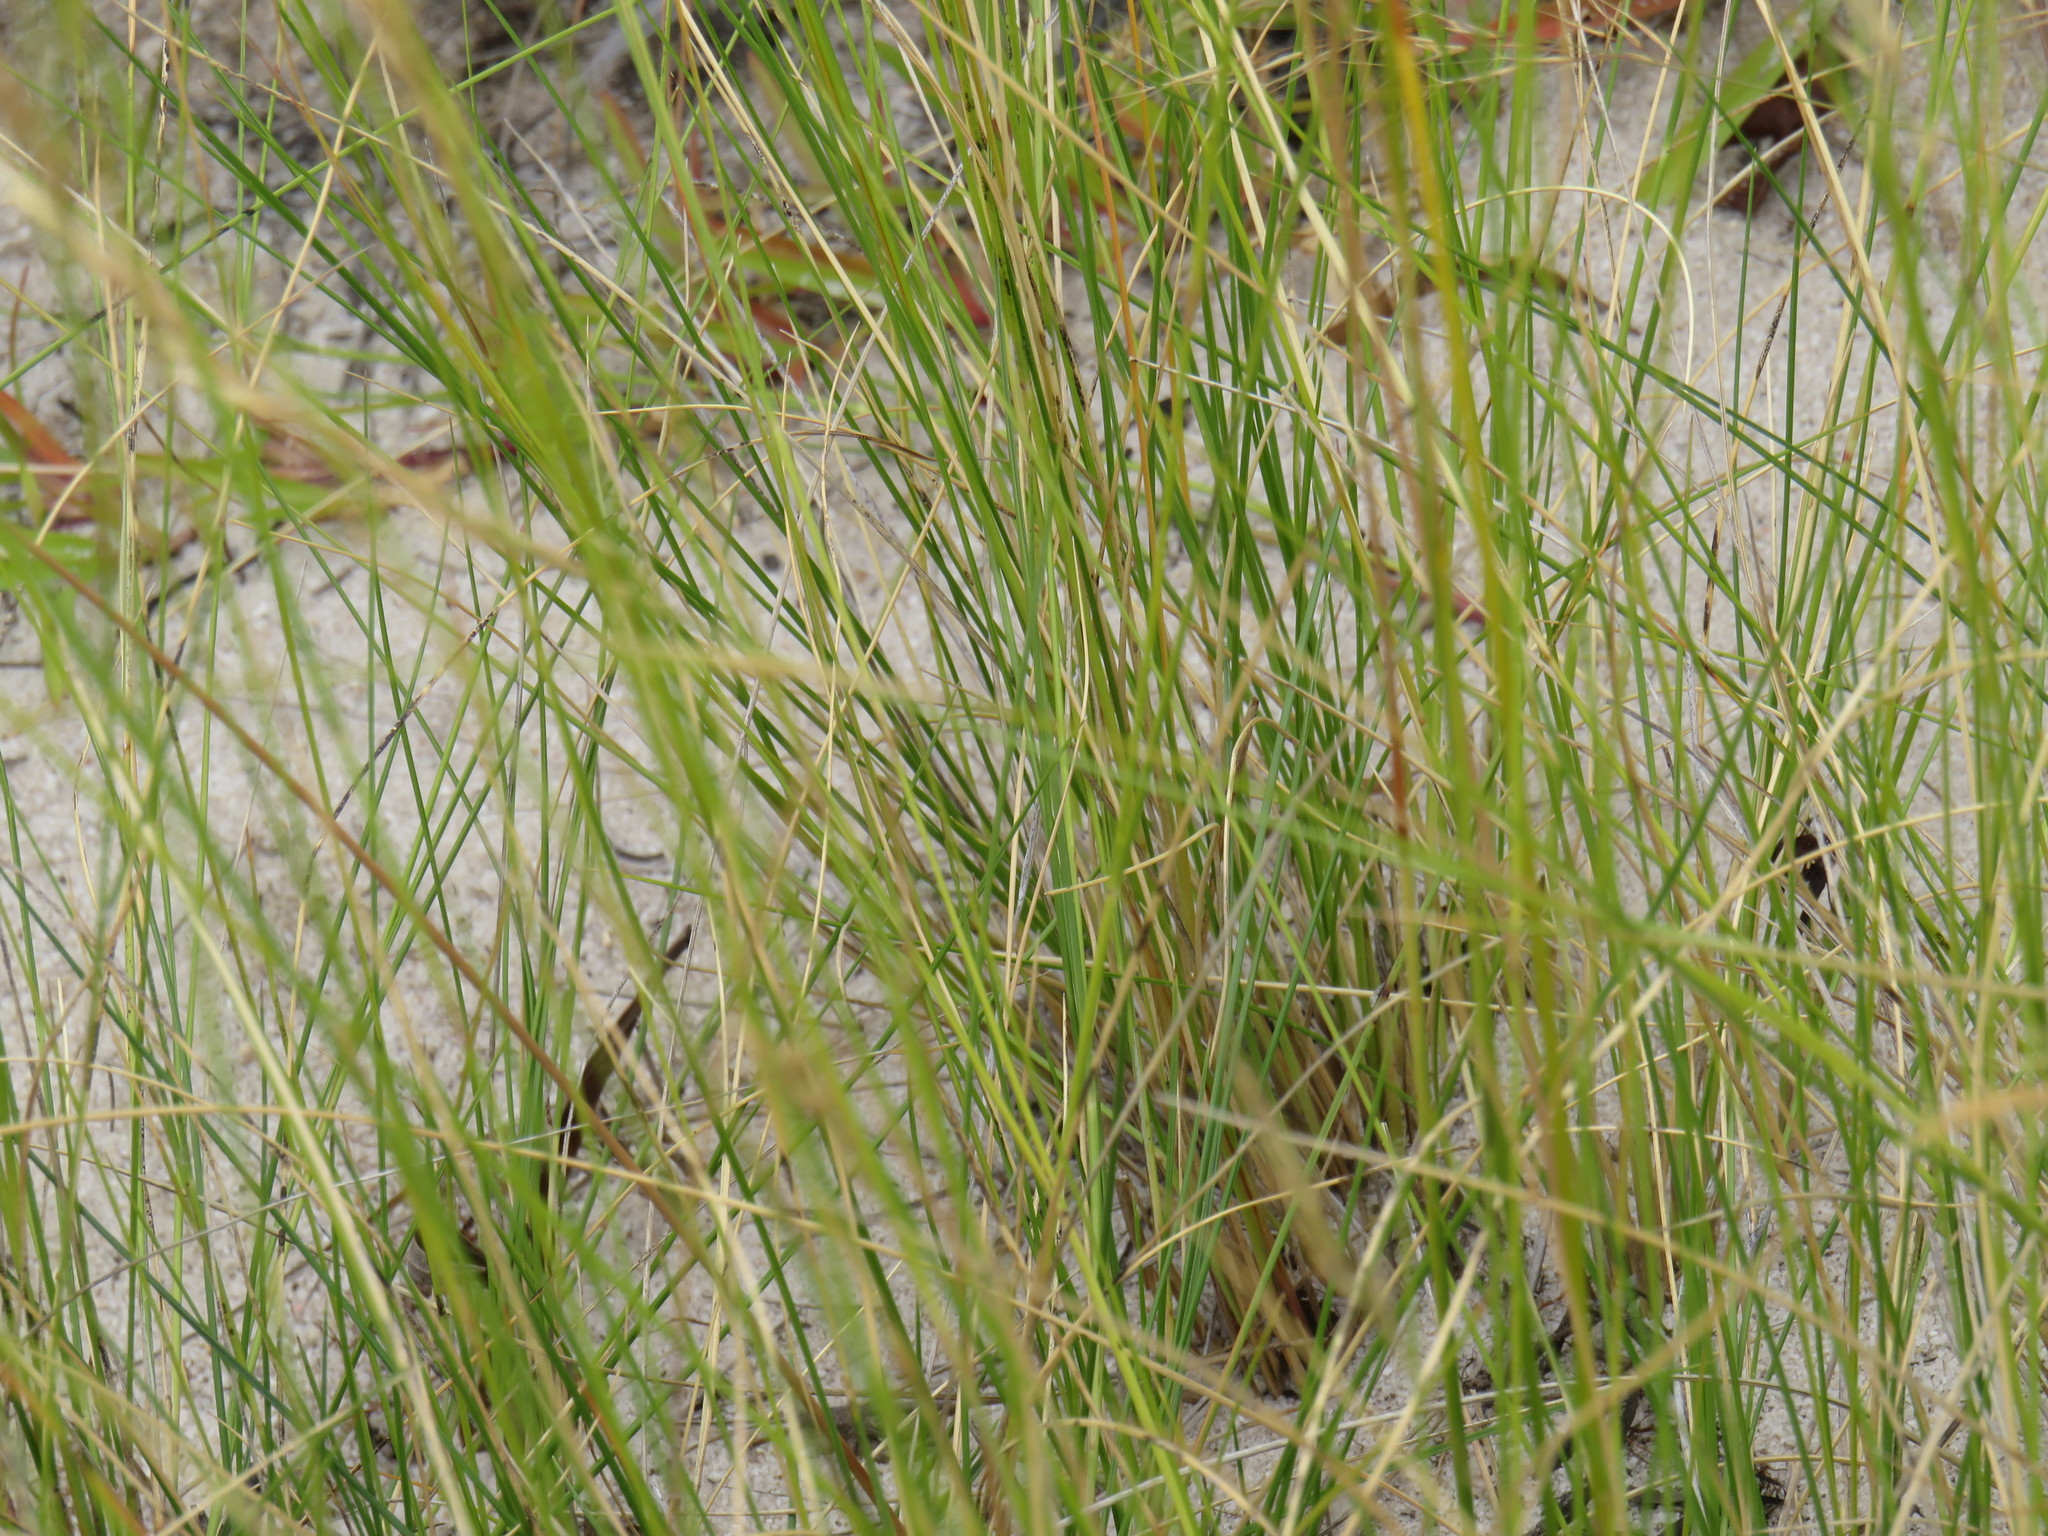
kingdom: Plantae
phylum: Tracheophyta
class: Liliopsida
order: Poales
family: Poaceae
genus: Aristida
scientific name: Aristida adscensionis
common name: Sixweeks threeawn
